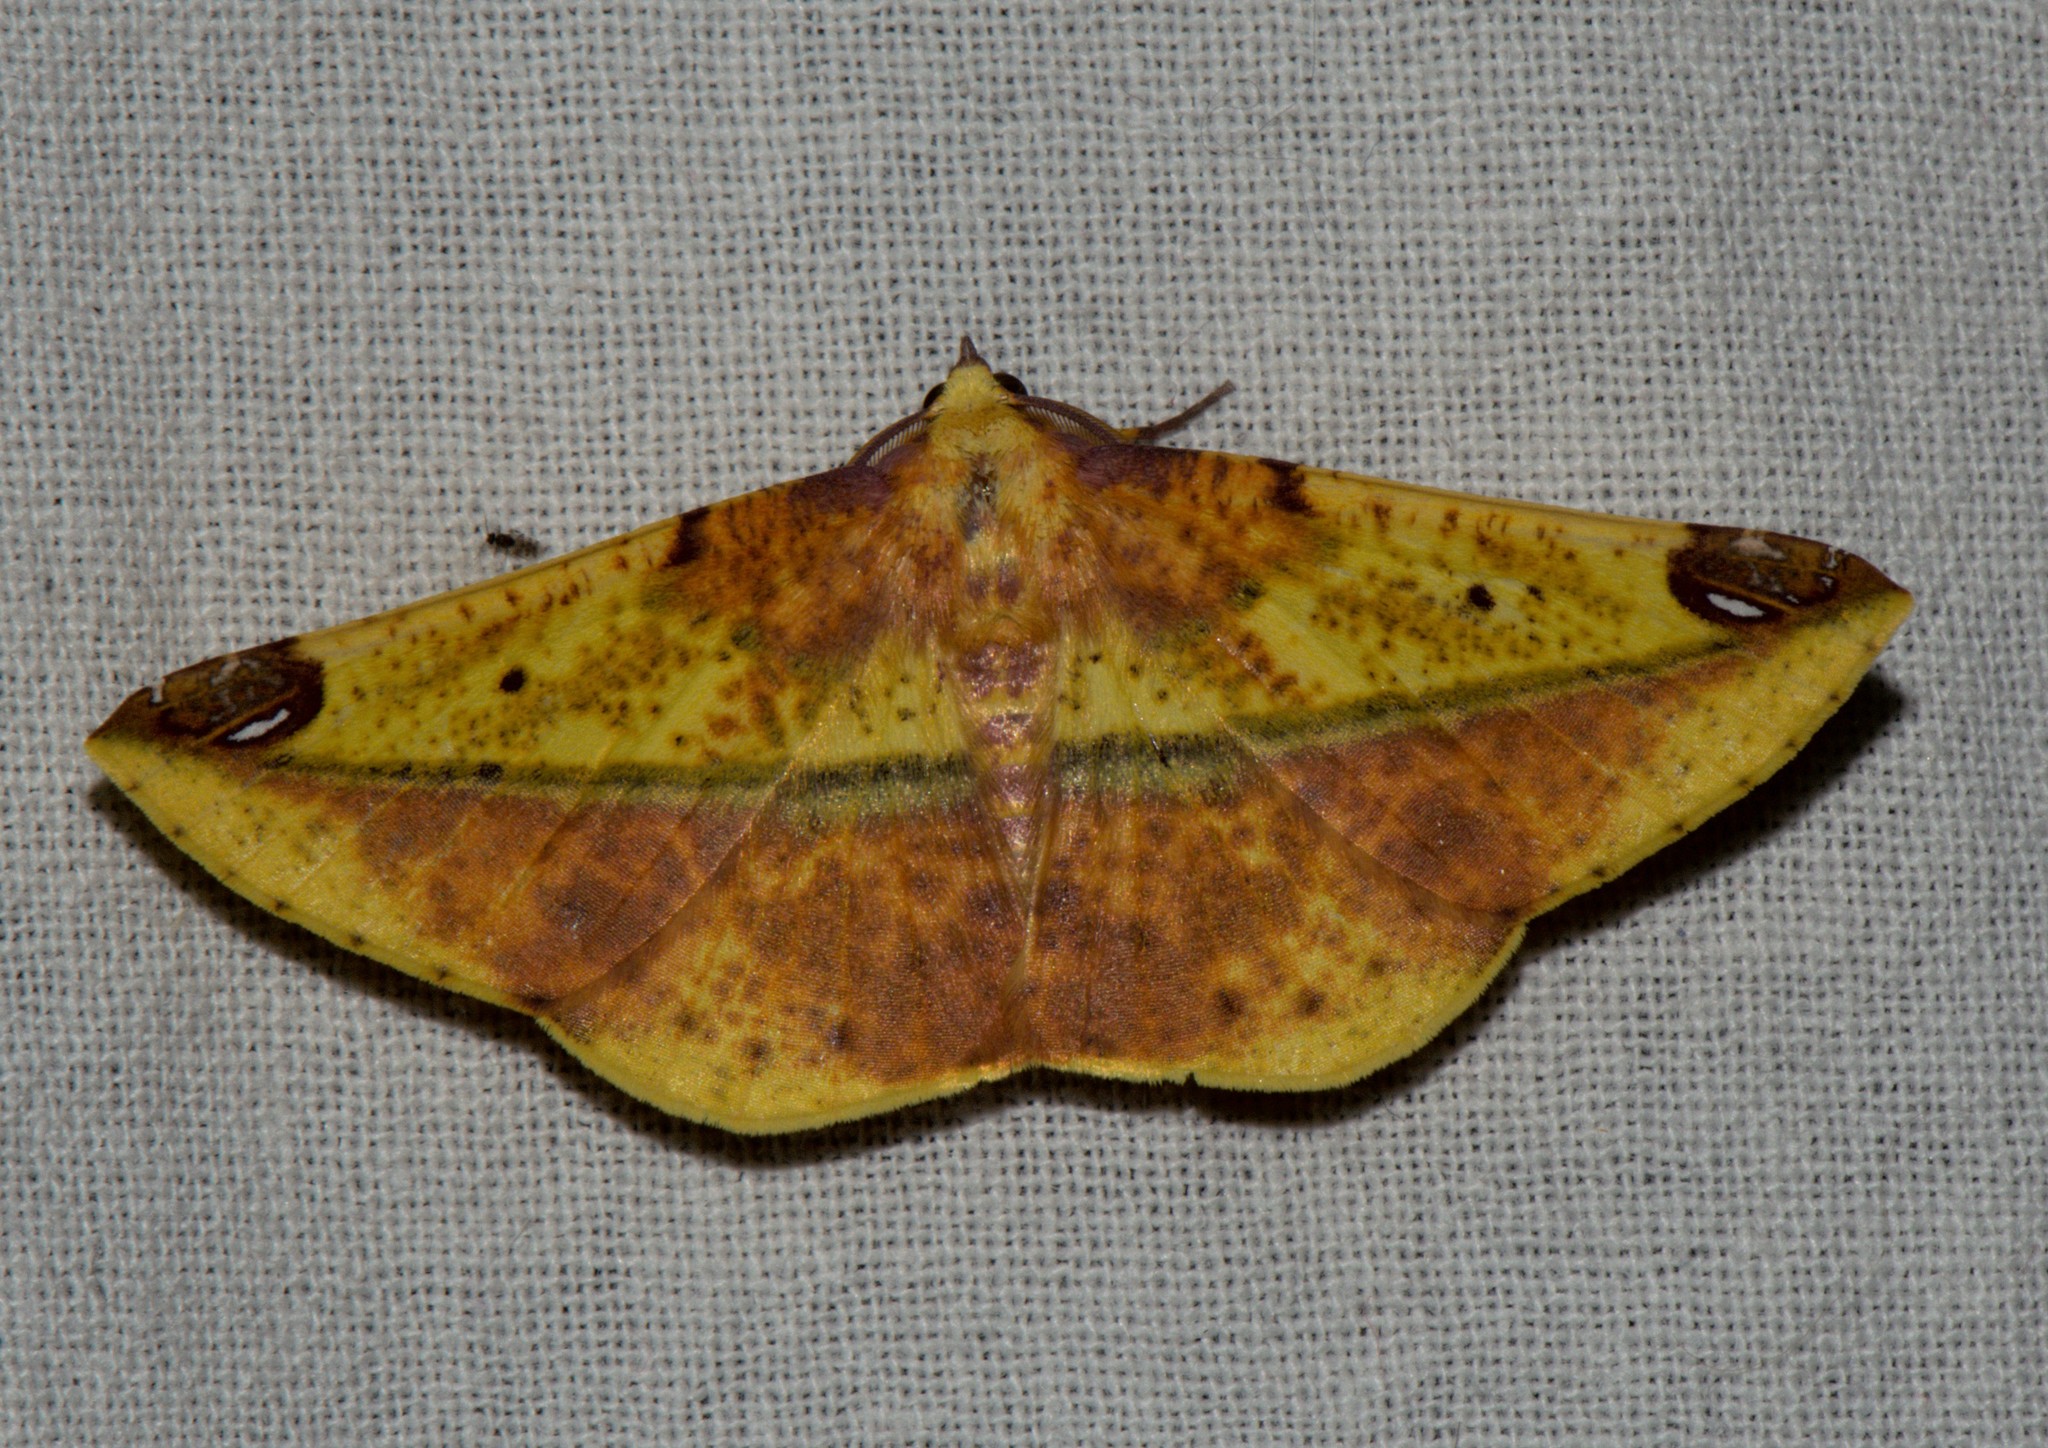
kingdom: Animalia
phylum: Arthropoda
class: Insecta
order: Lepidoptera
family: Geometridae
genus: Mimomiza
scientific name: Mimomiza cruentaria
